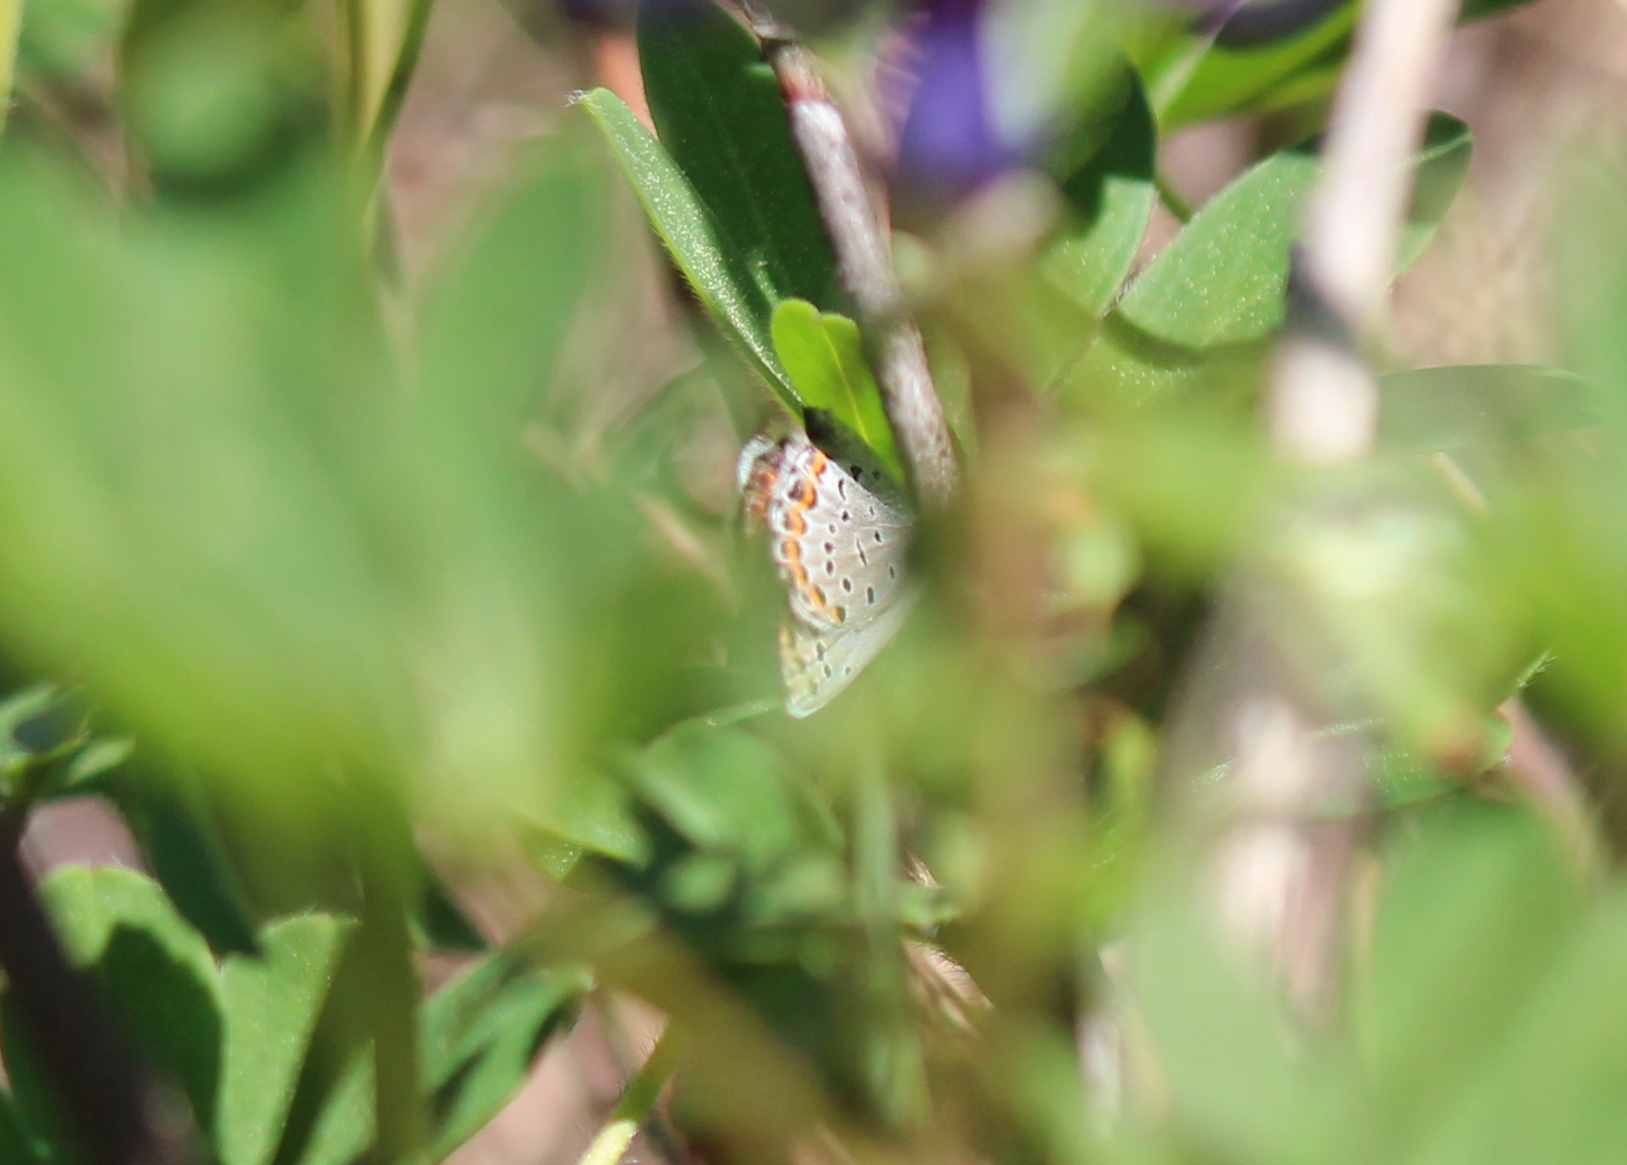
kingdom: Animalia
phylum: Arthropoda
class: Insecta
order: Lepidoptera
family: Lycaenidae
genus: Plebejus
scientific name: Plebejus samuelis
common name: Karner blue
